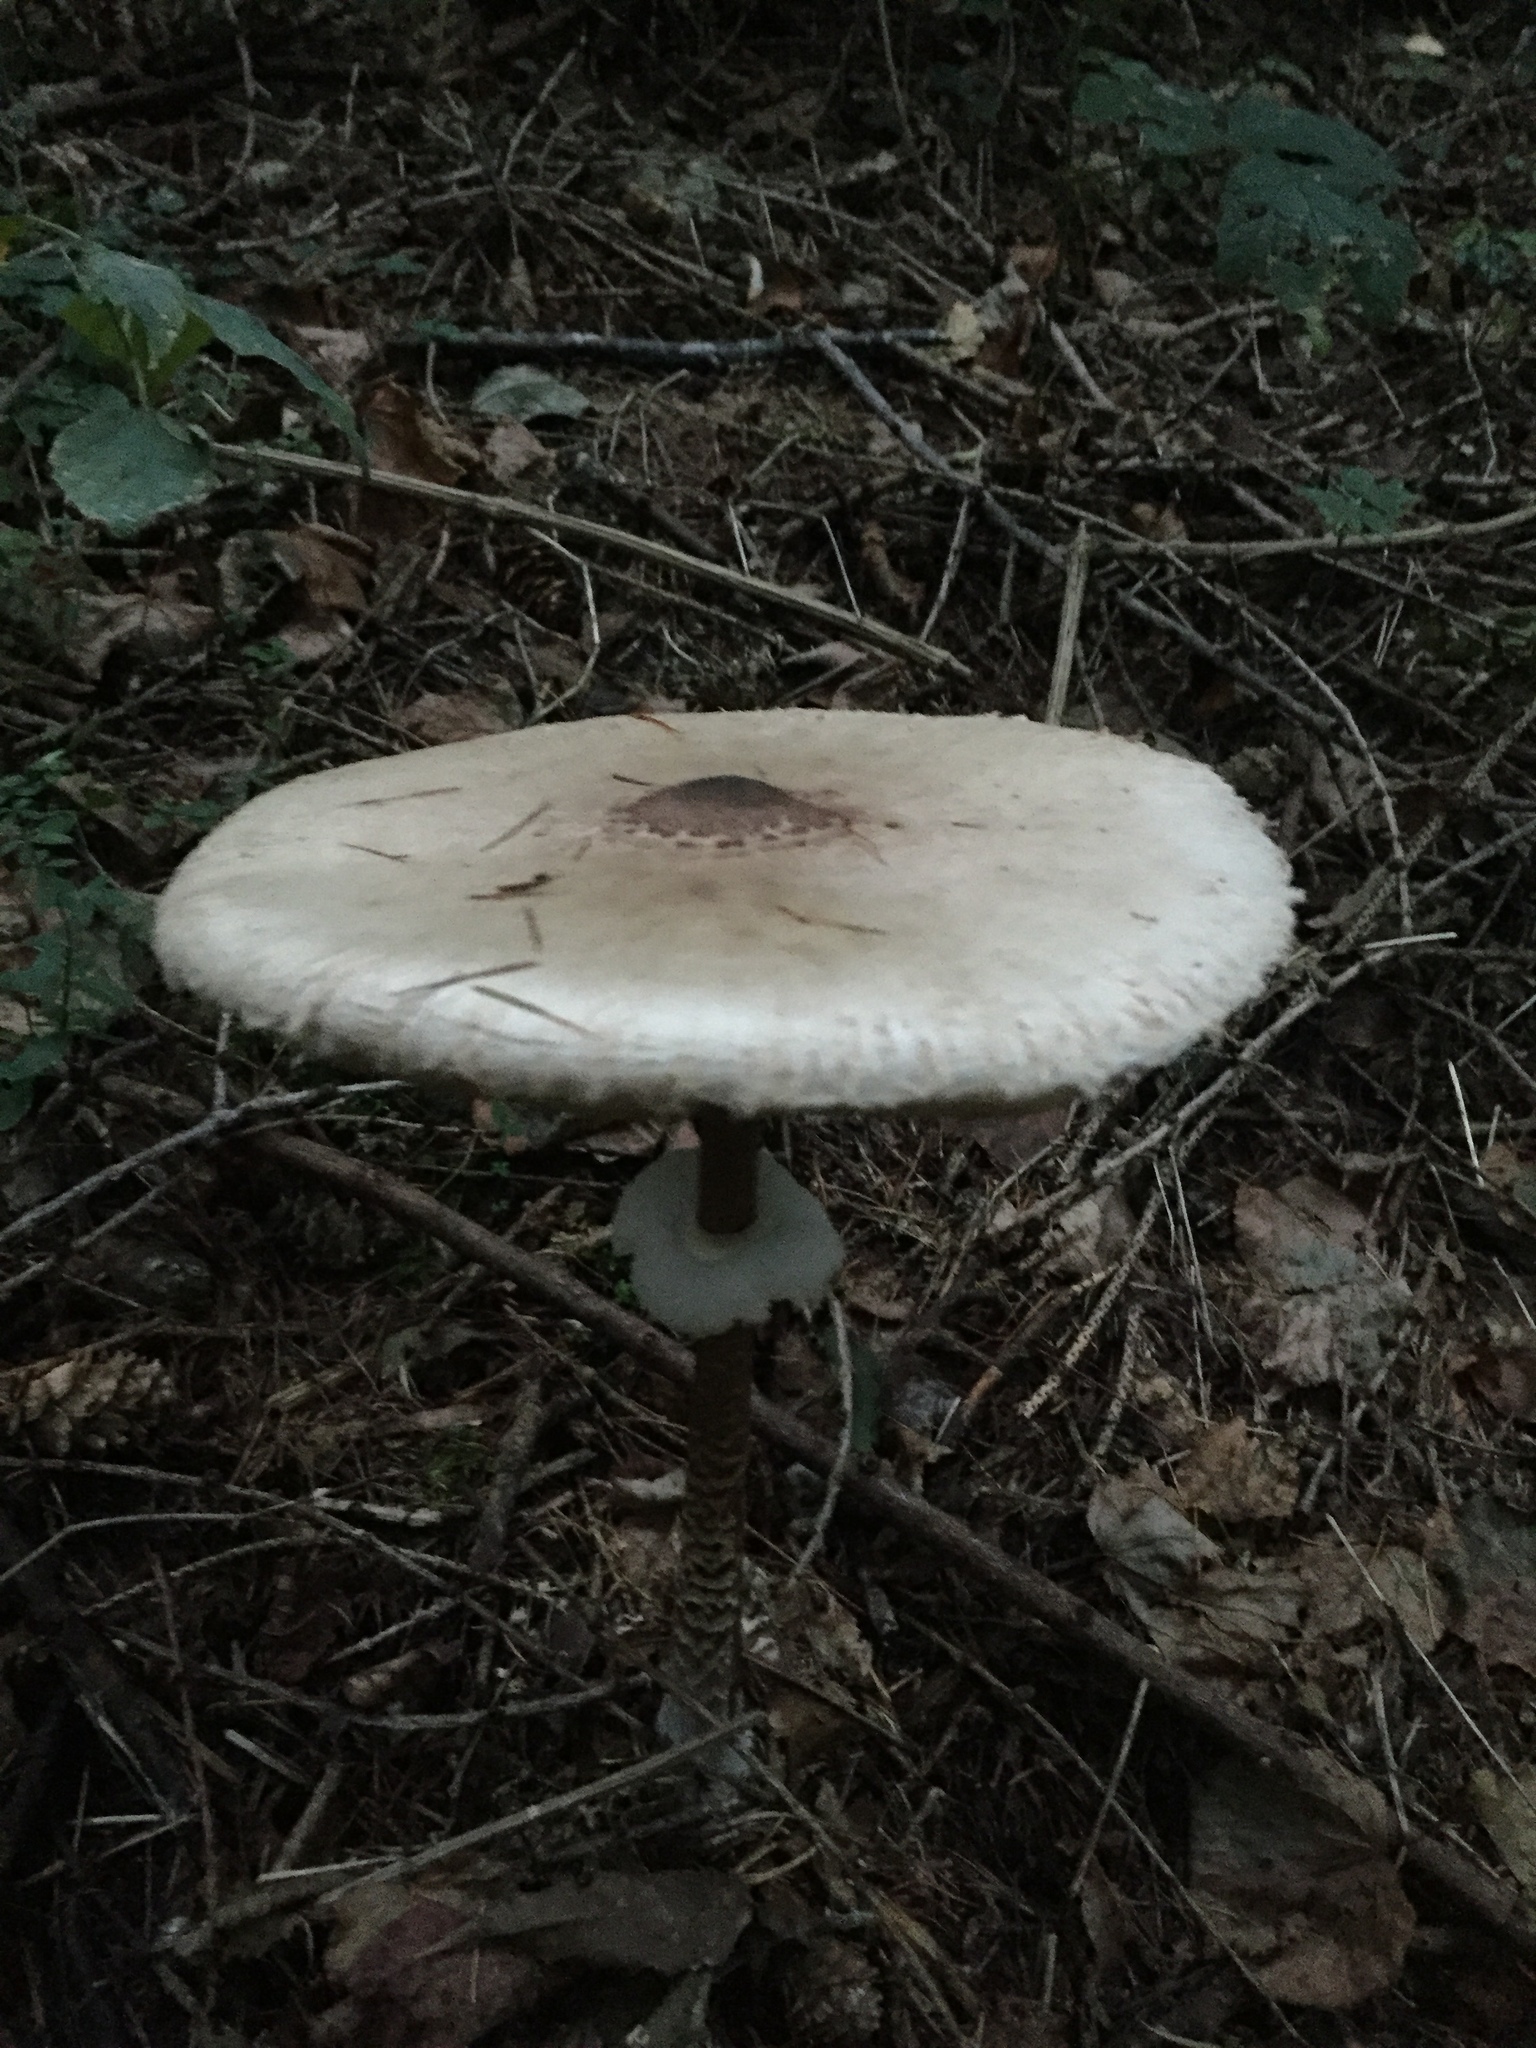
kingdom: Fungi
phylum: Basidiomycota
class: Agaricomycetes
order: Agaricales
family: Agaricaceae
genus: Macrolepiota
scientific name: Macrolepiota procera
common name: Parasol
